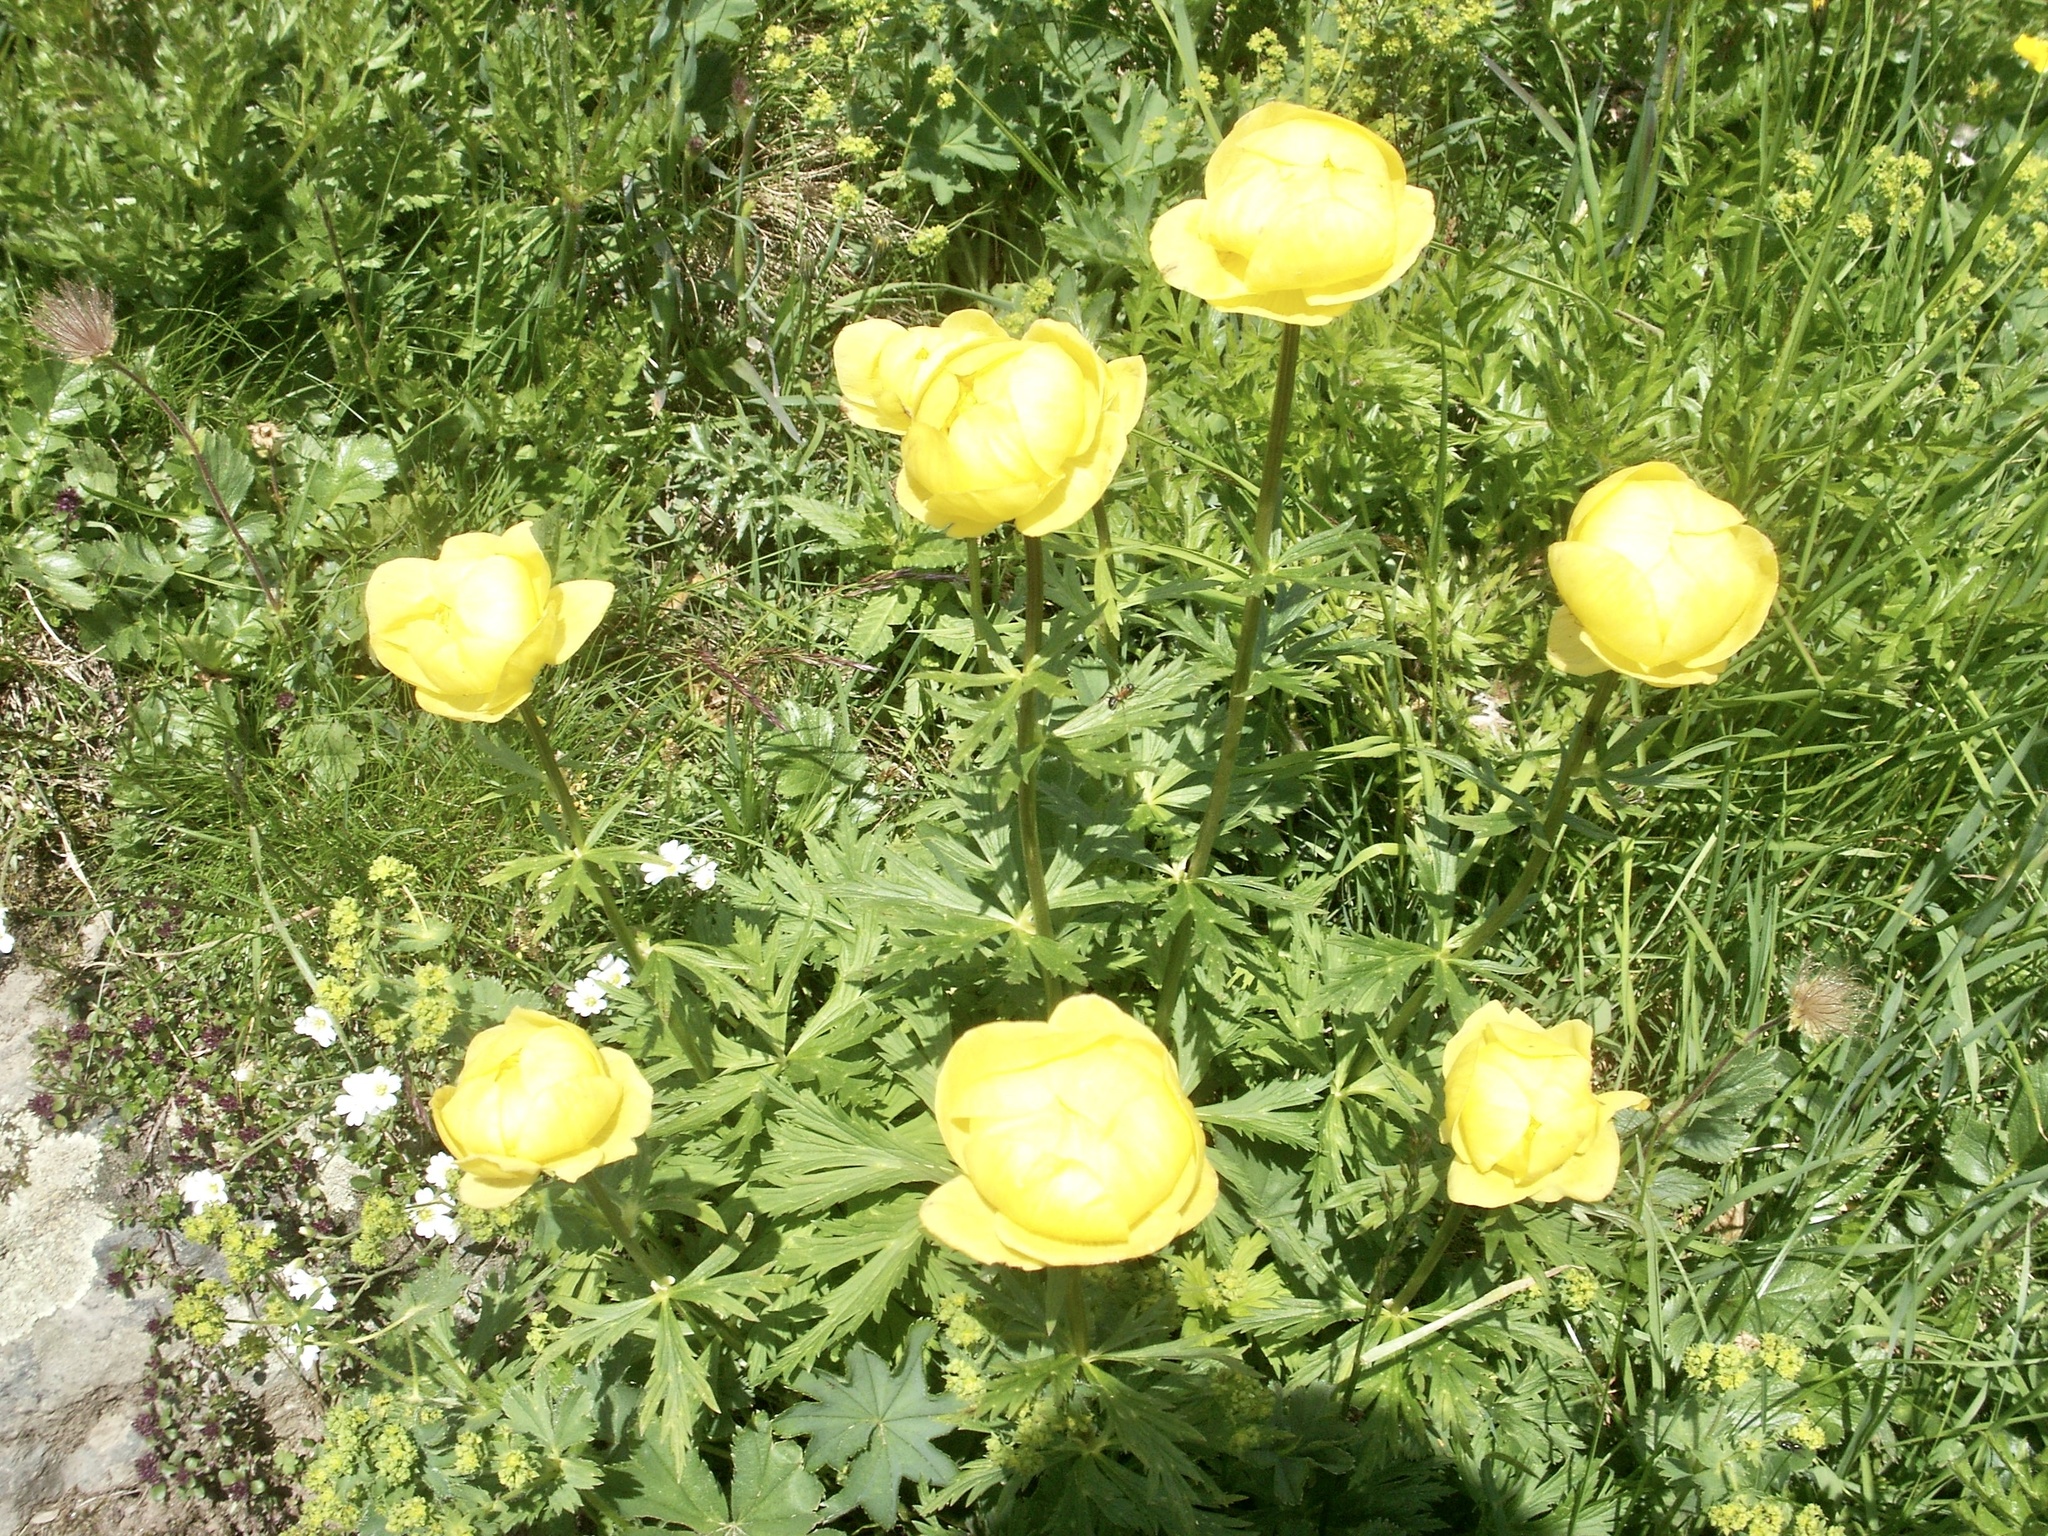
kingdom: Plantae
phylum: Tracheophyta
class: Magnoliopsida
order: Ranunculales
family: Ranunculaceae
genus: Trollius
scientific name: Trollius europaeus
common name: European globeflower
